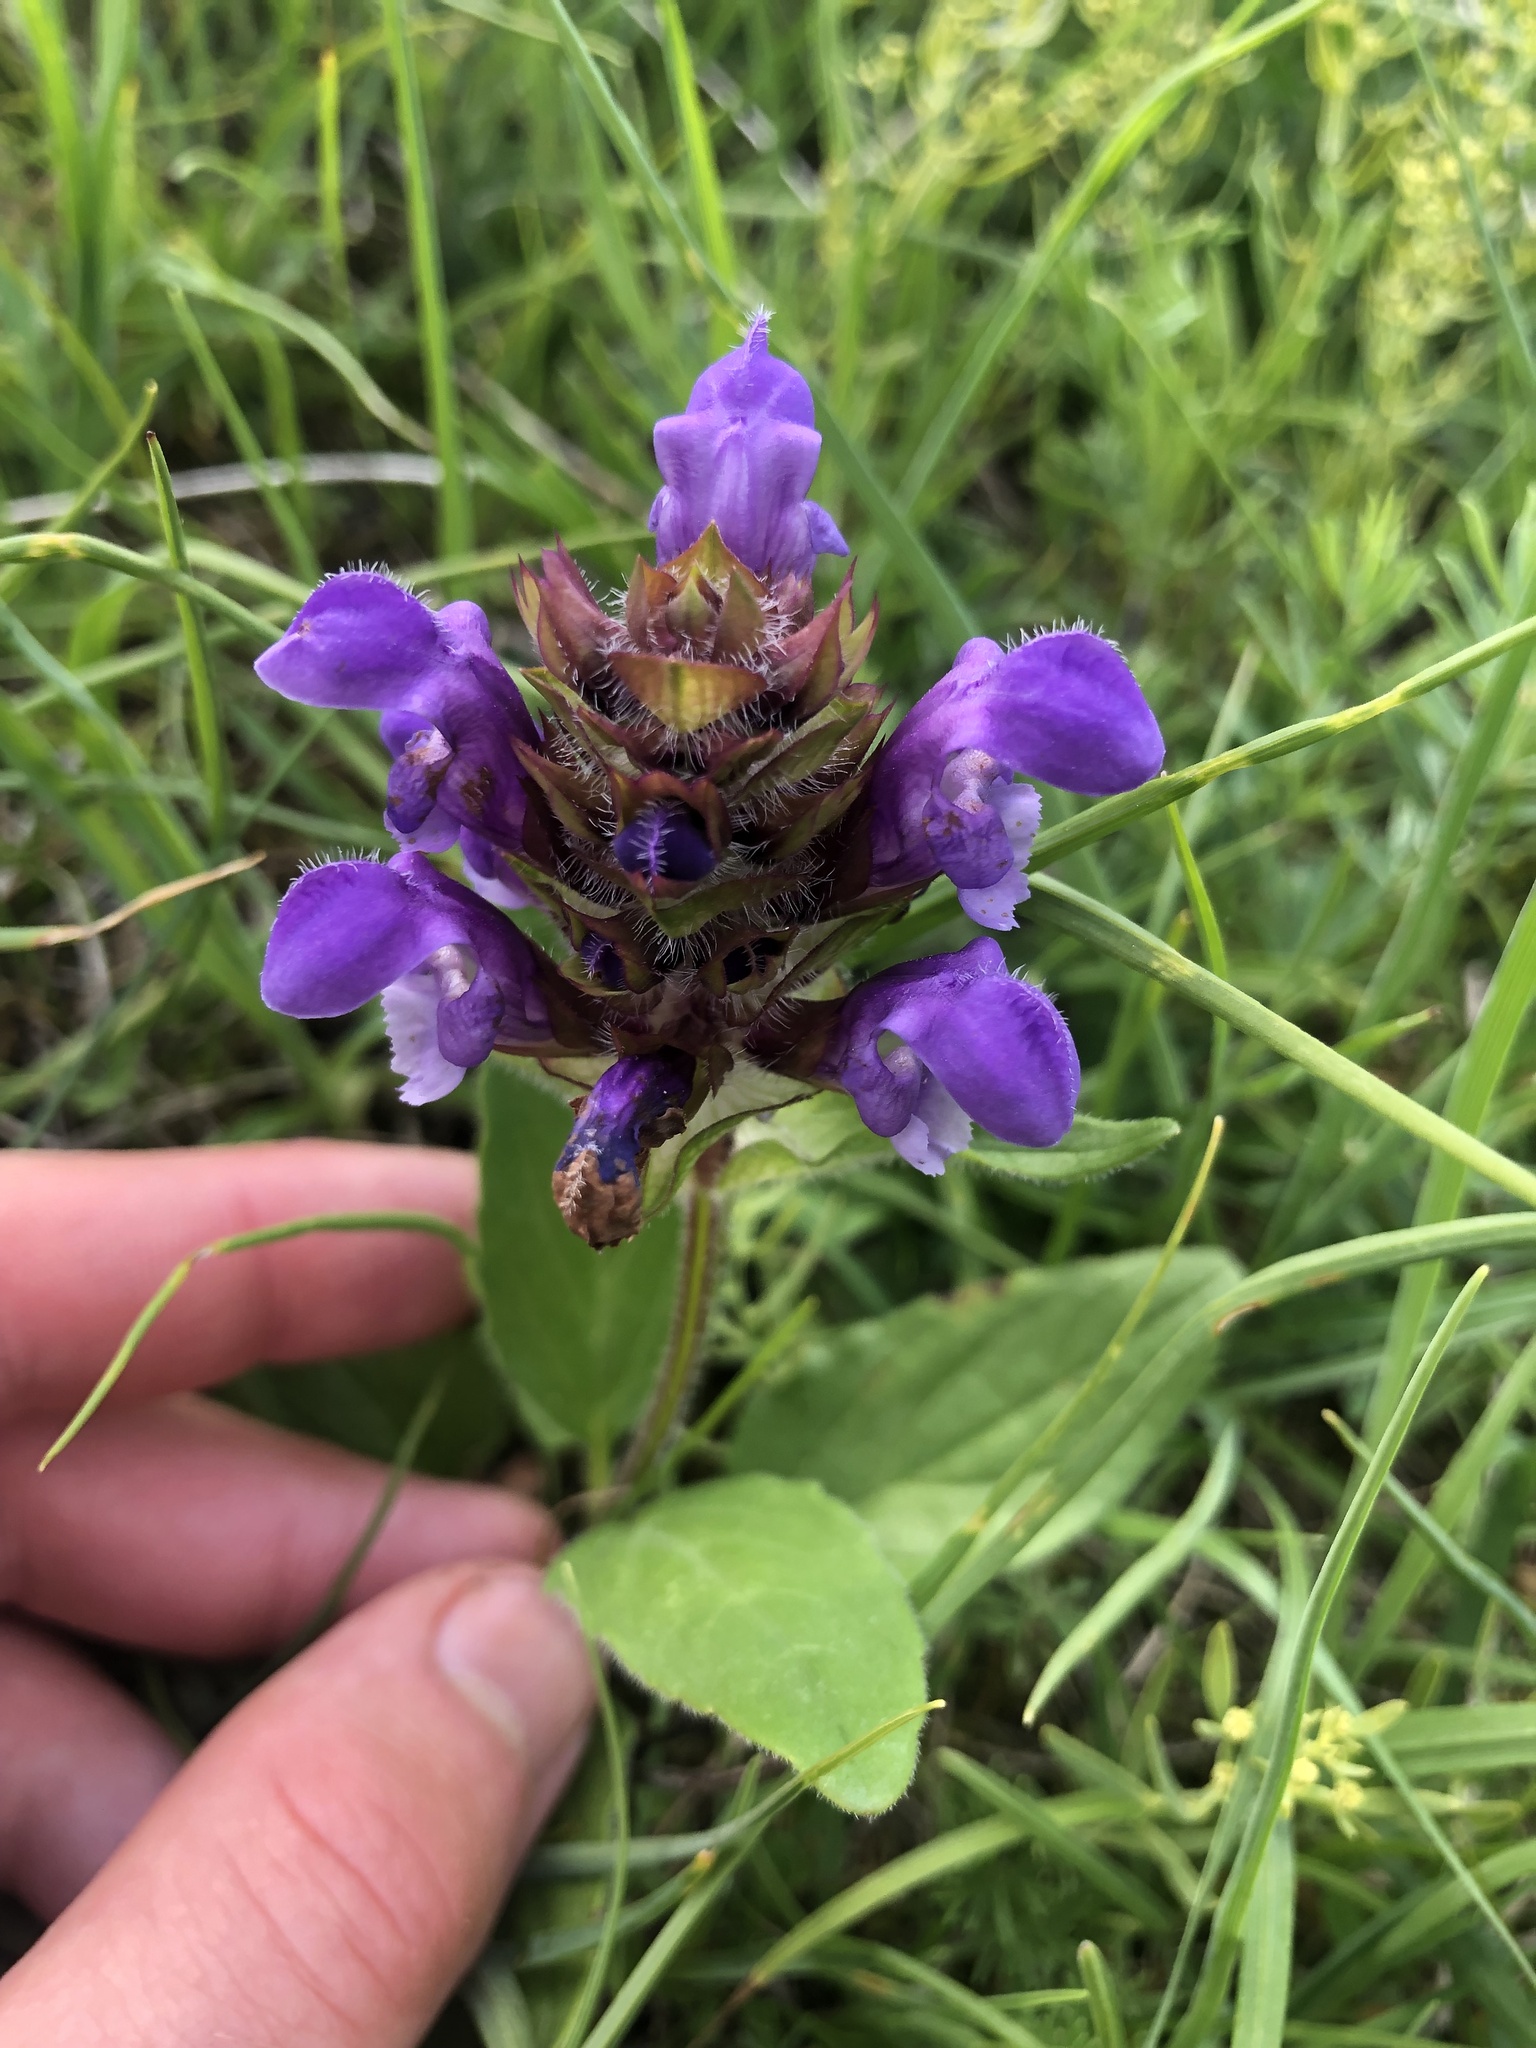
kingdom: Plantae
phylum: Tracheophyta
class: Magnoliopsida
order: Lamiales
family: Lamiaceae
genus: Prunella
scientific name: Prunella grandiflora
